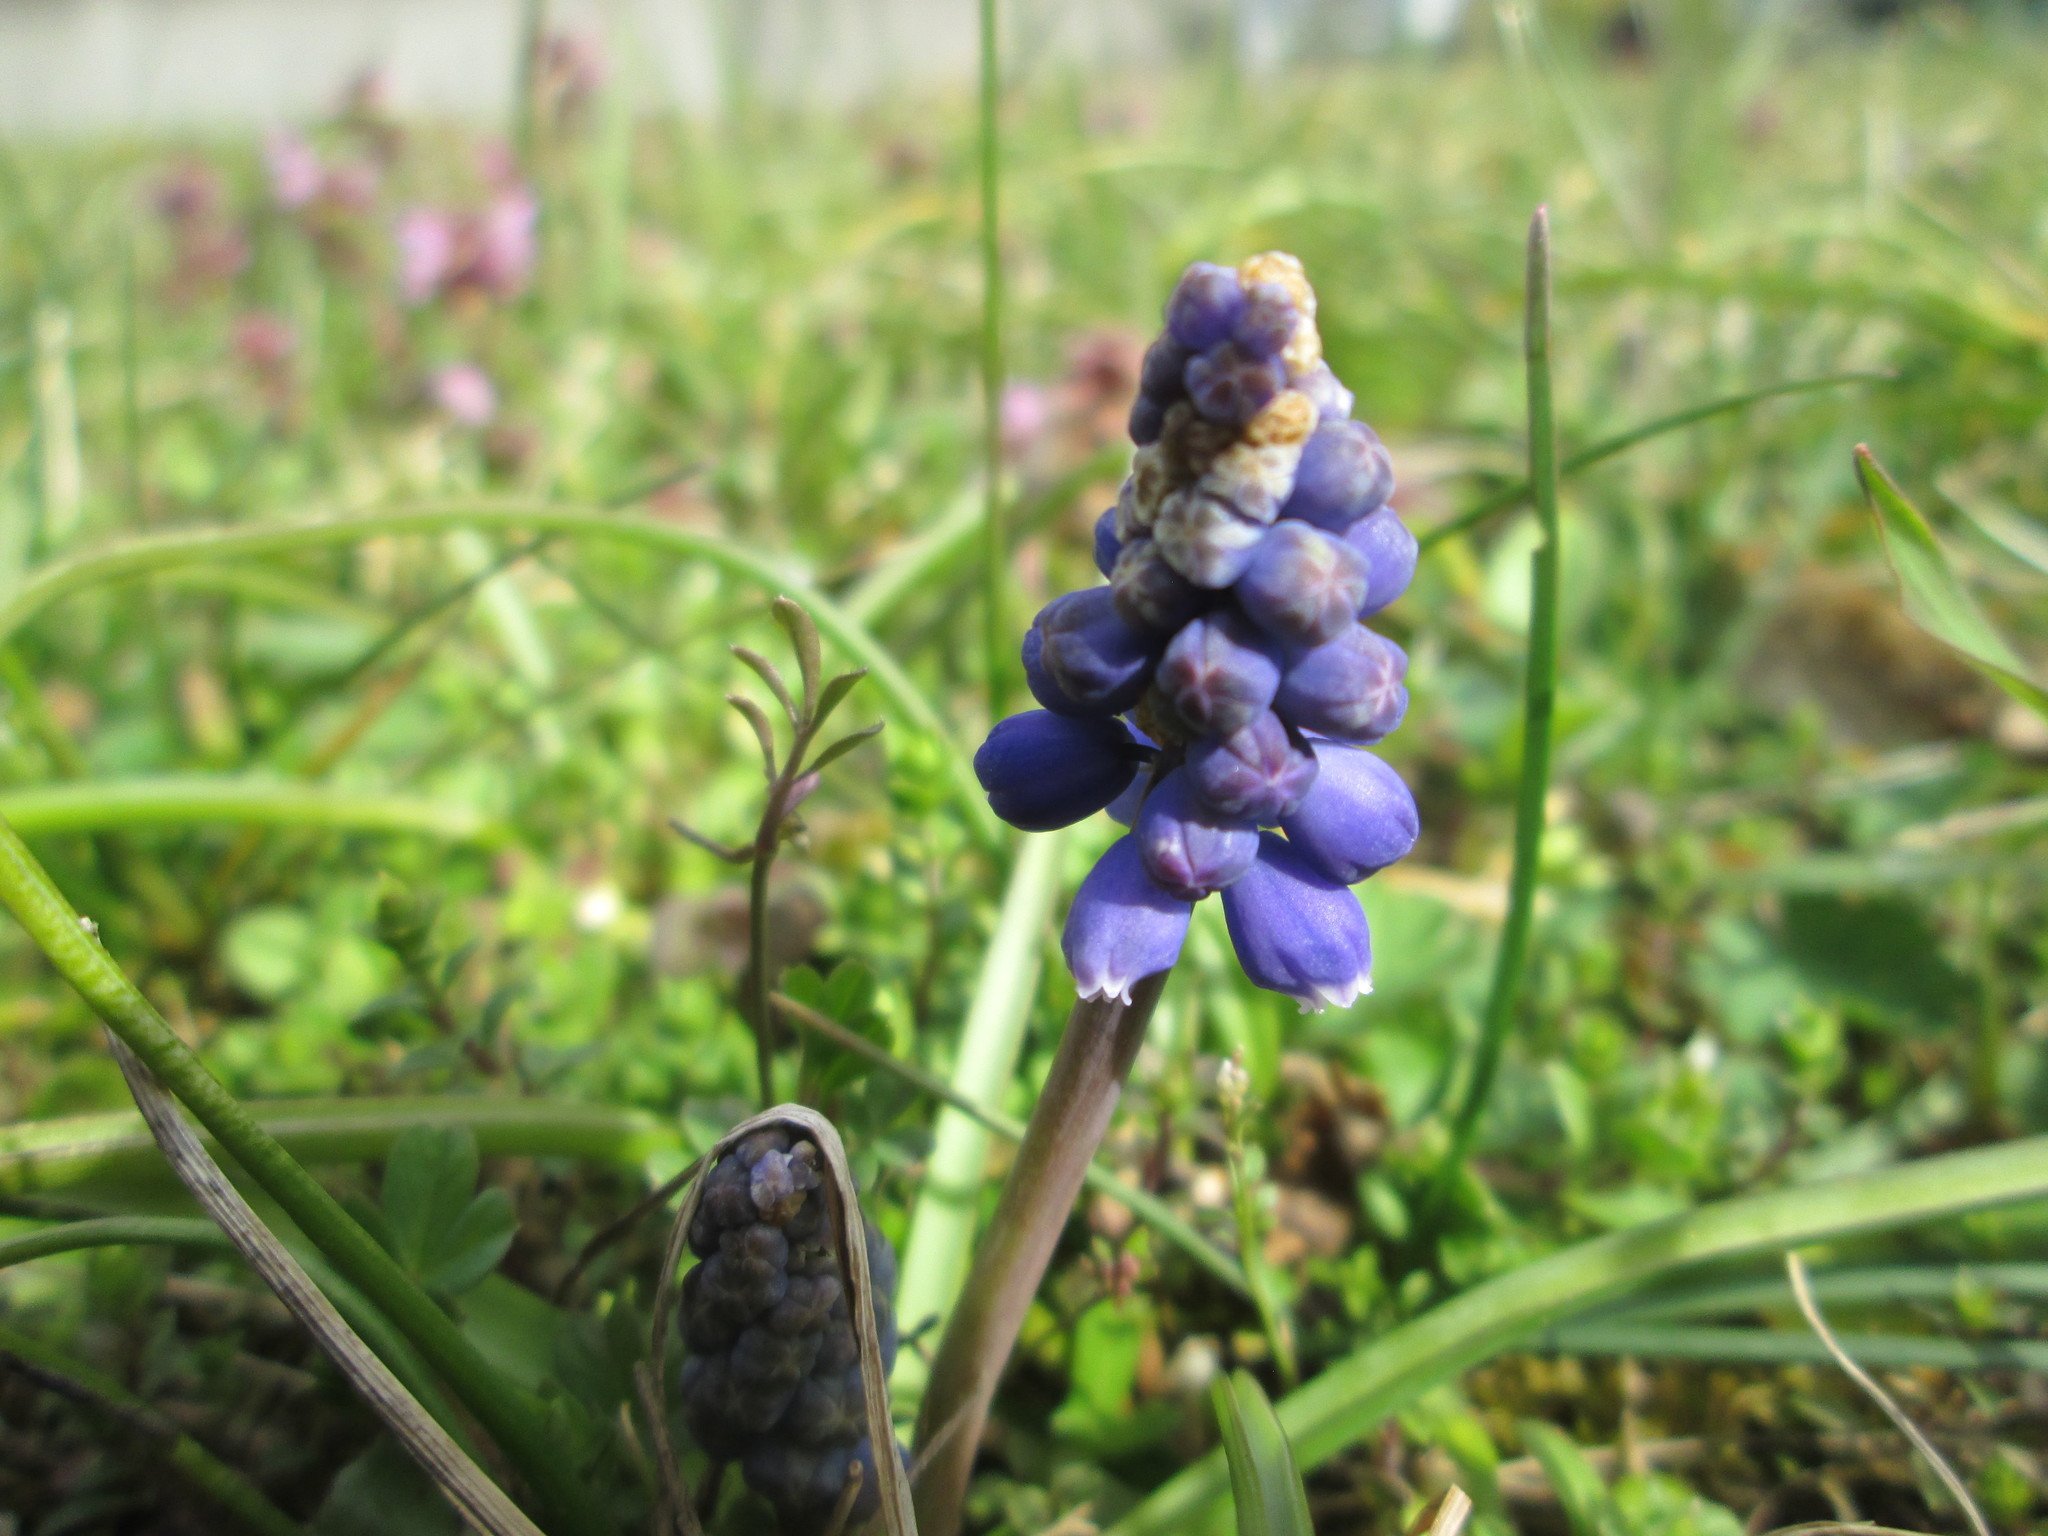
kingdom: Plantae
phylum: Tracheophyta
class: Liliopsida
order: Asparagales
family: Asparagaceae
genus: Muscari
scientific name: Muscari armeniacum
